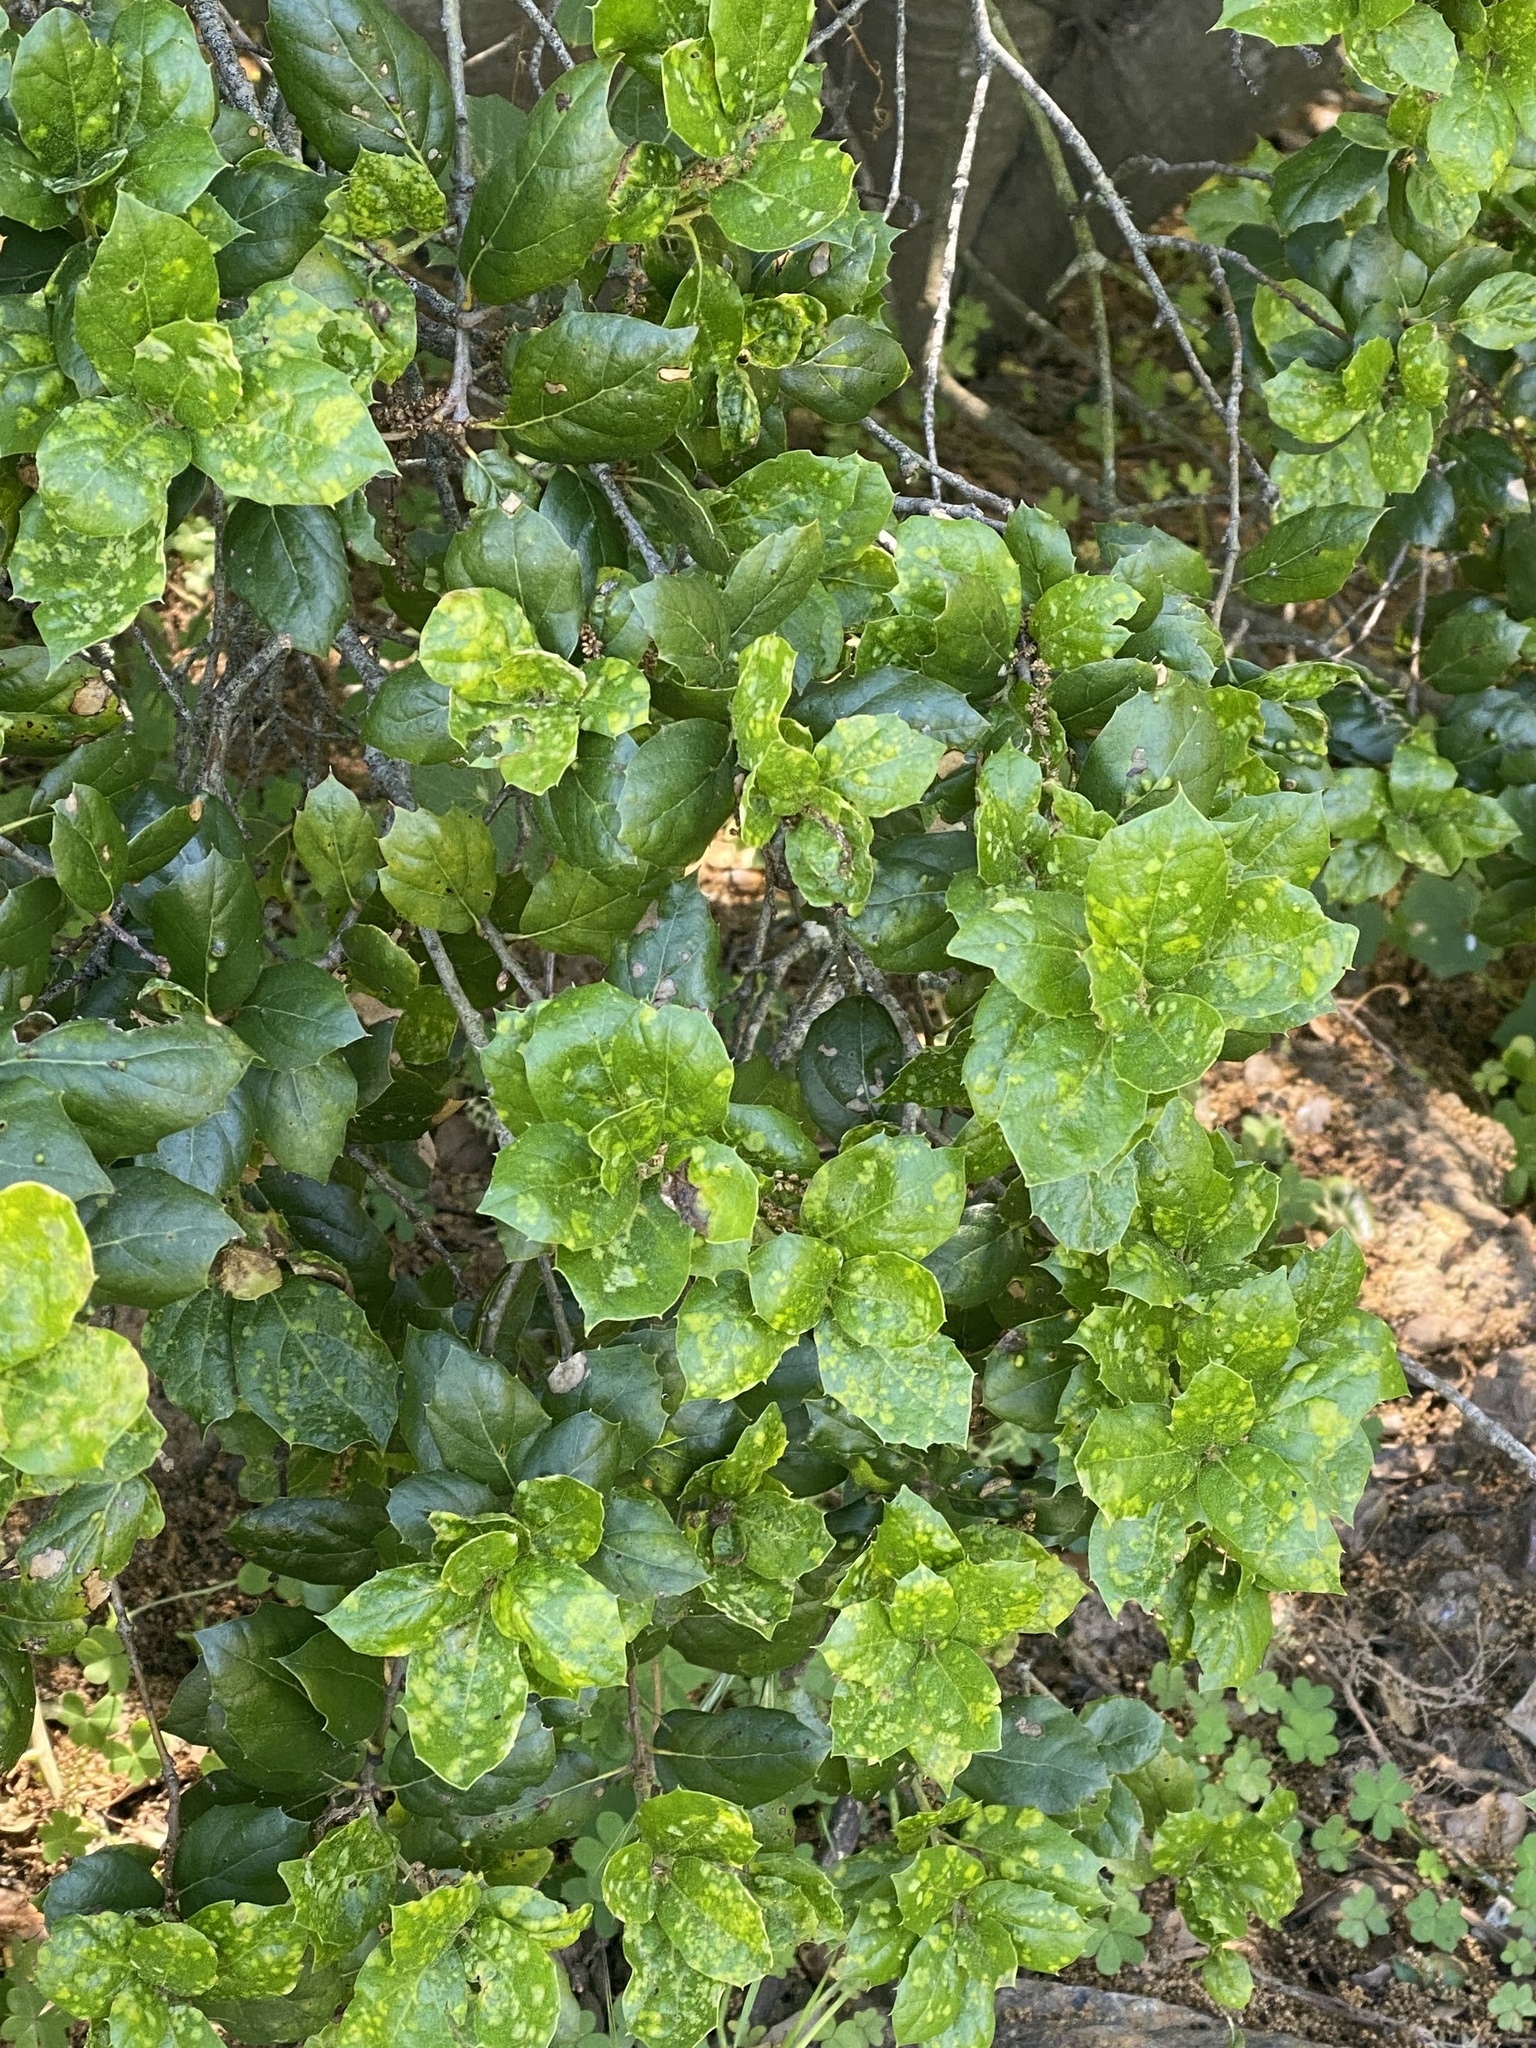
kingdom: Plantae
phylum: Tracheophyta
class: Magnoliopsida
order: Fagales
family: Fagaceae
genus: Quercus
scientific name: Quercus agrifolia
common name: California live oak
